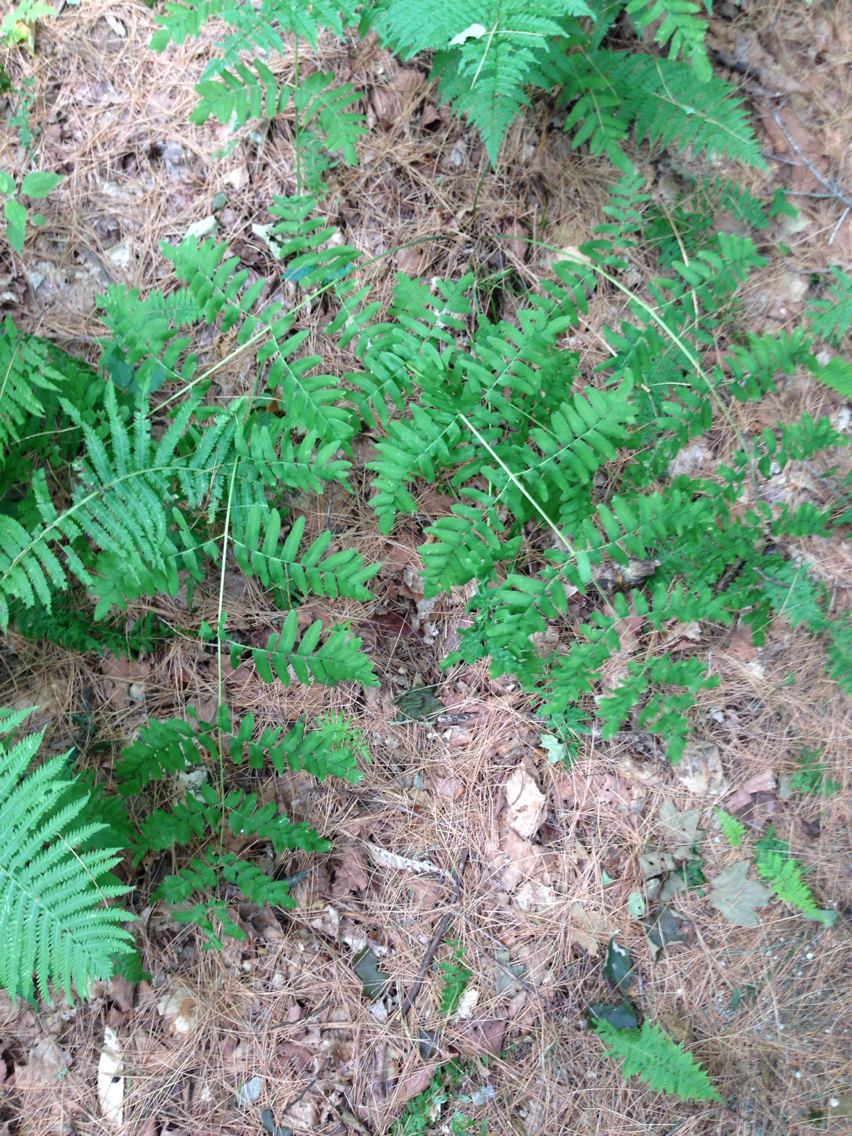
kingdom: Plantae
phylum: Tracheophyta
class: Polypodiopsida
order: Osmundales
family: Osmundaceae
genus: Osmunda
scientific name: Osmunda spectabilis
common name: American royal fern
